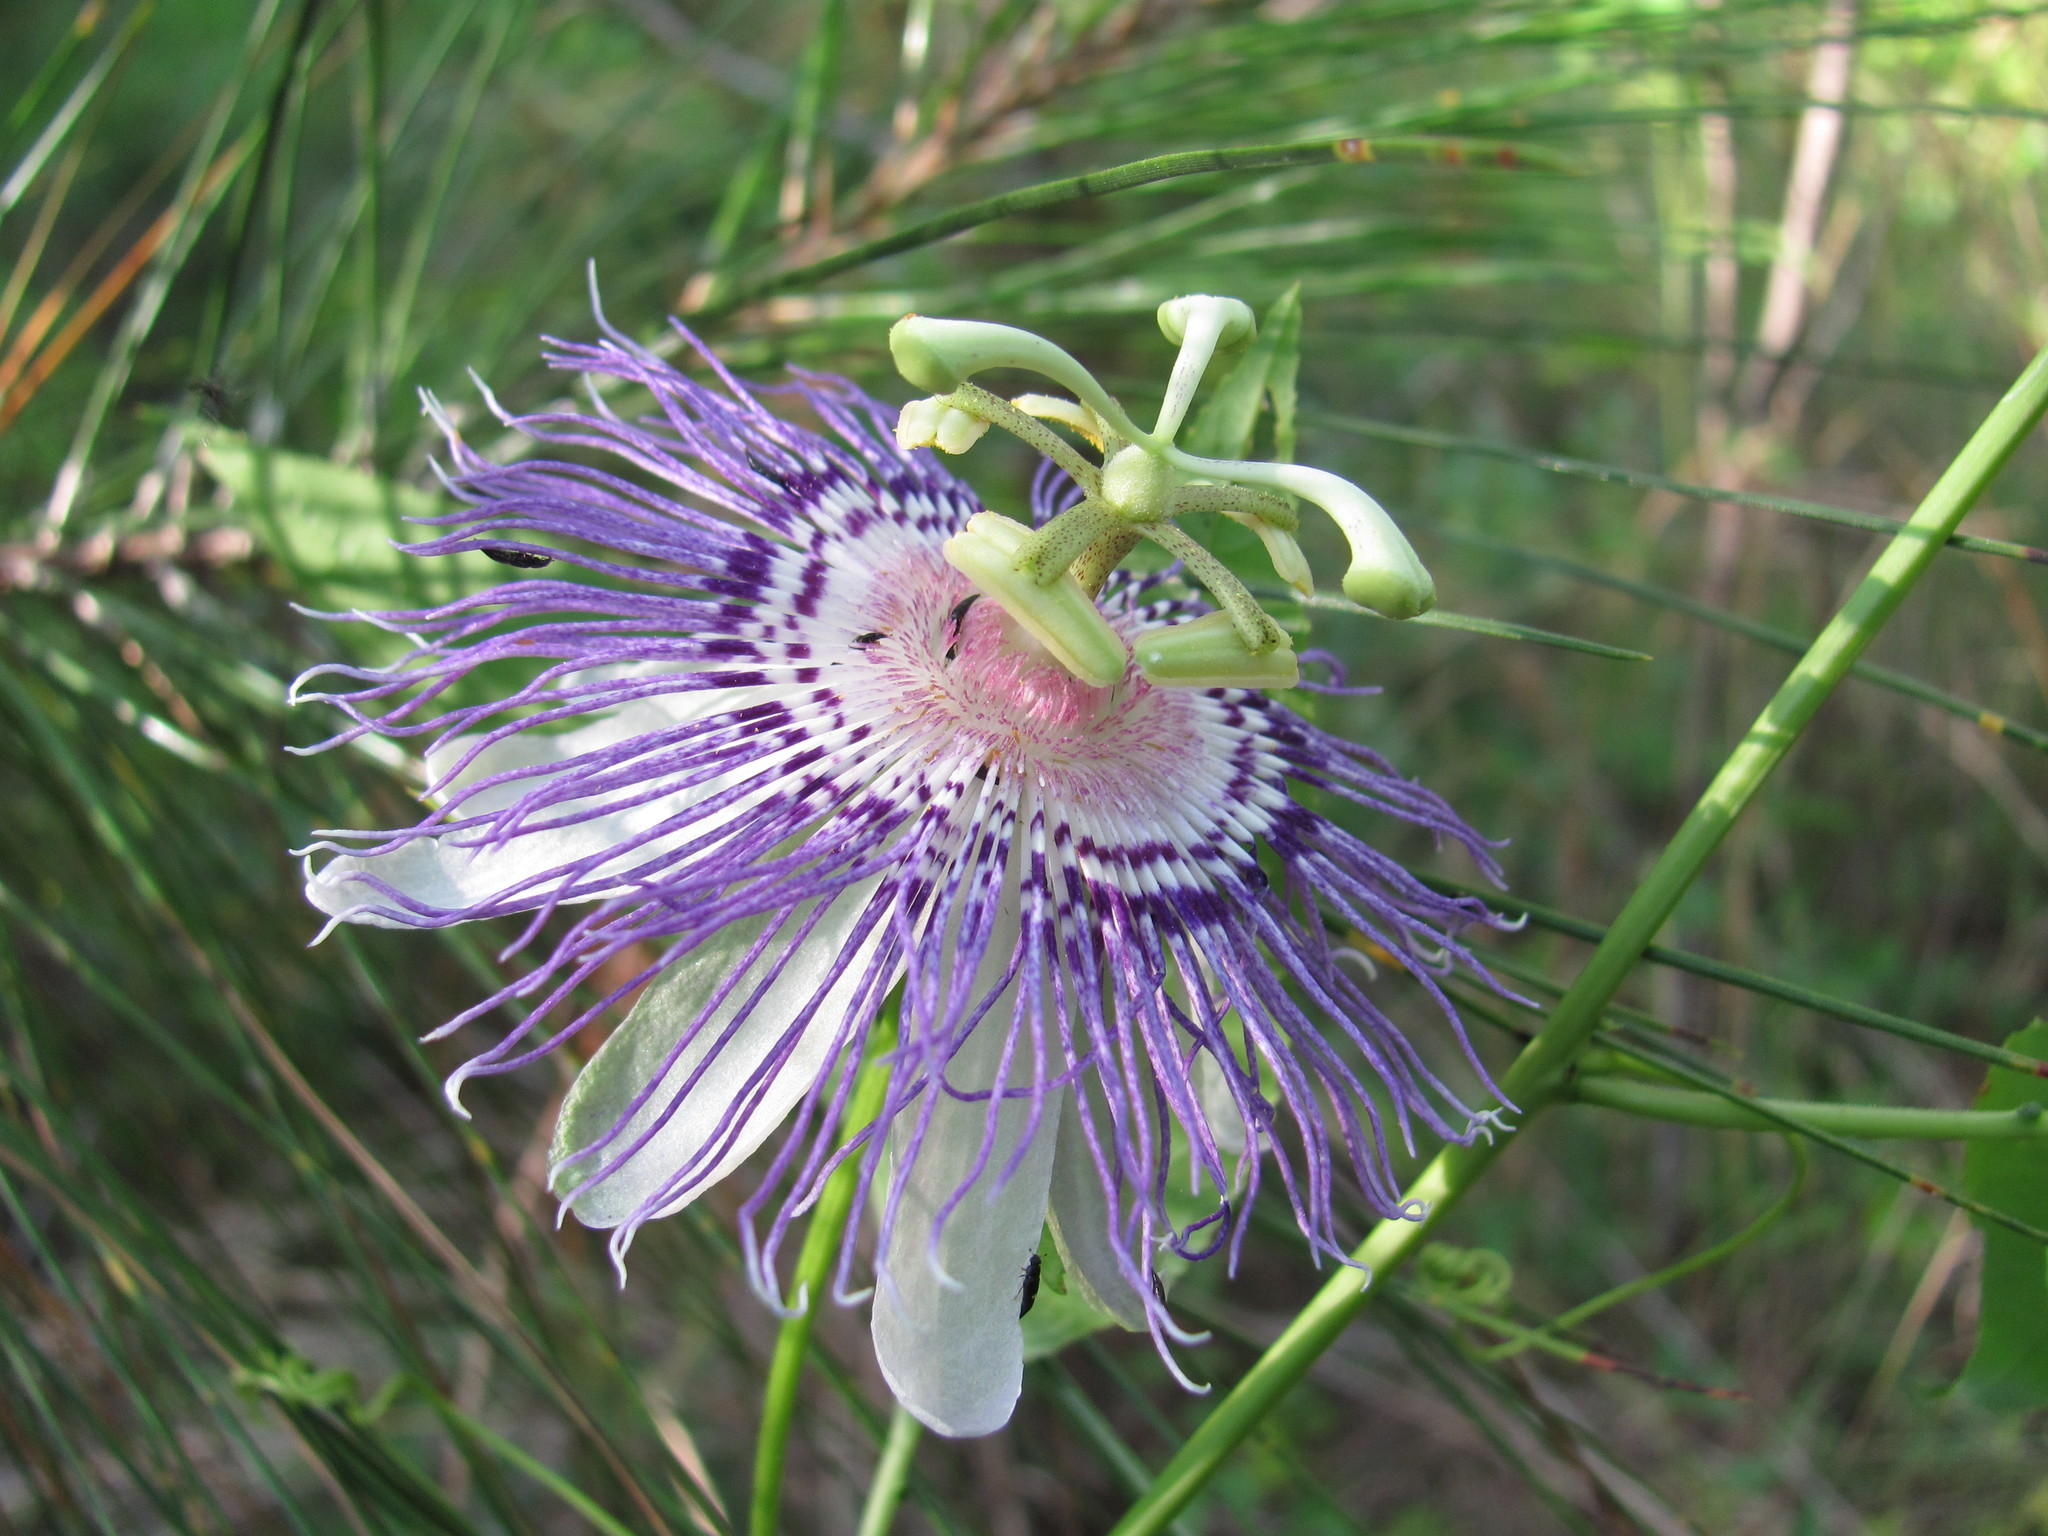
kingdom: Plantae
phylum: Tracheophyta
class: Magnoliopsida
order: Malpighiales
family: Passifloraceae
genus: Passiflora
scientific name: Passiflora incarnata
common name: Apricot-vine
